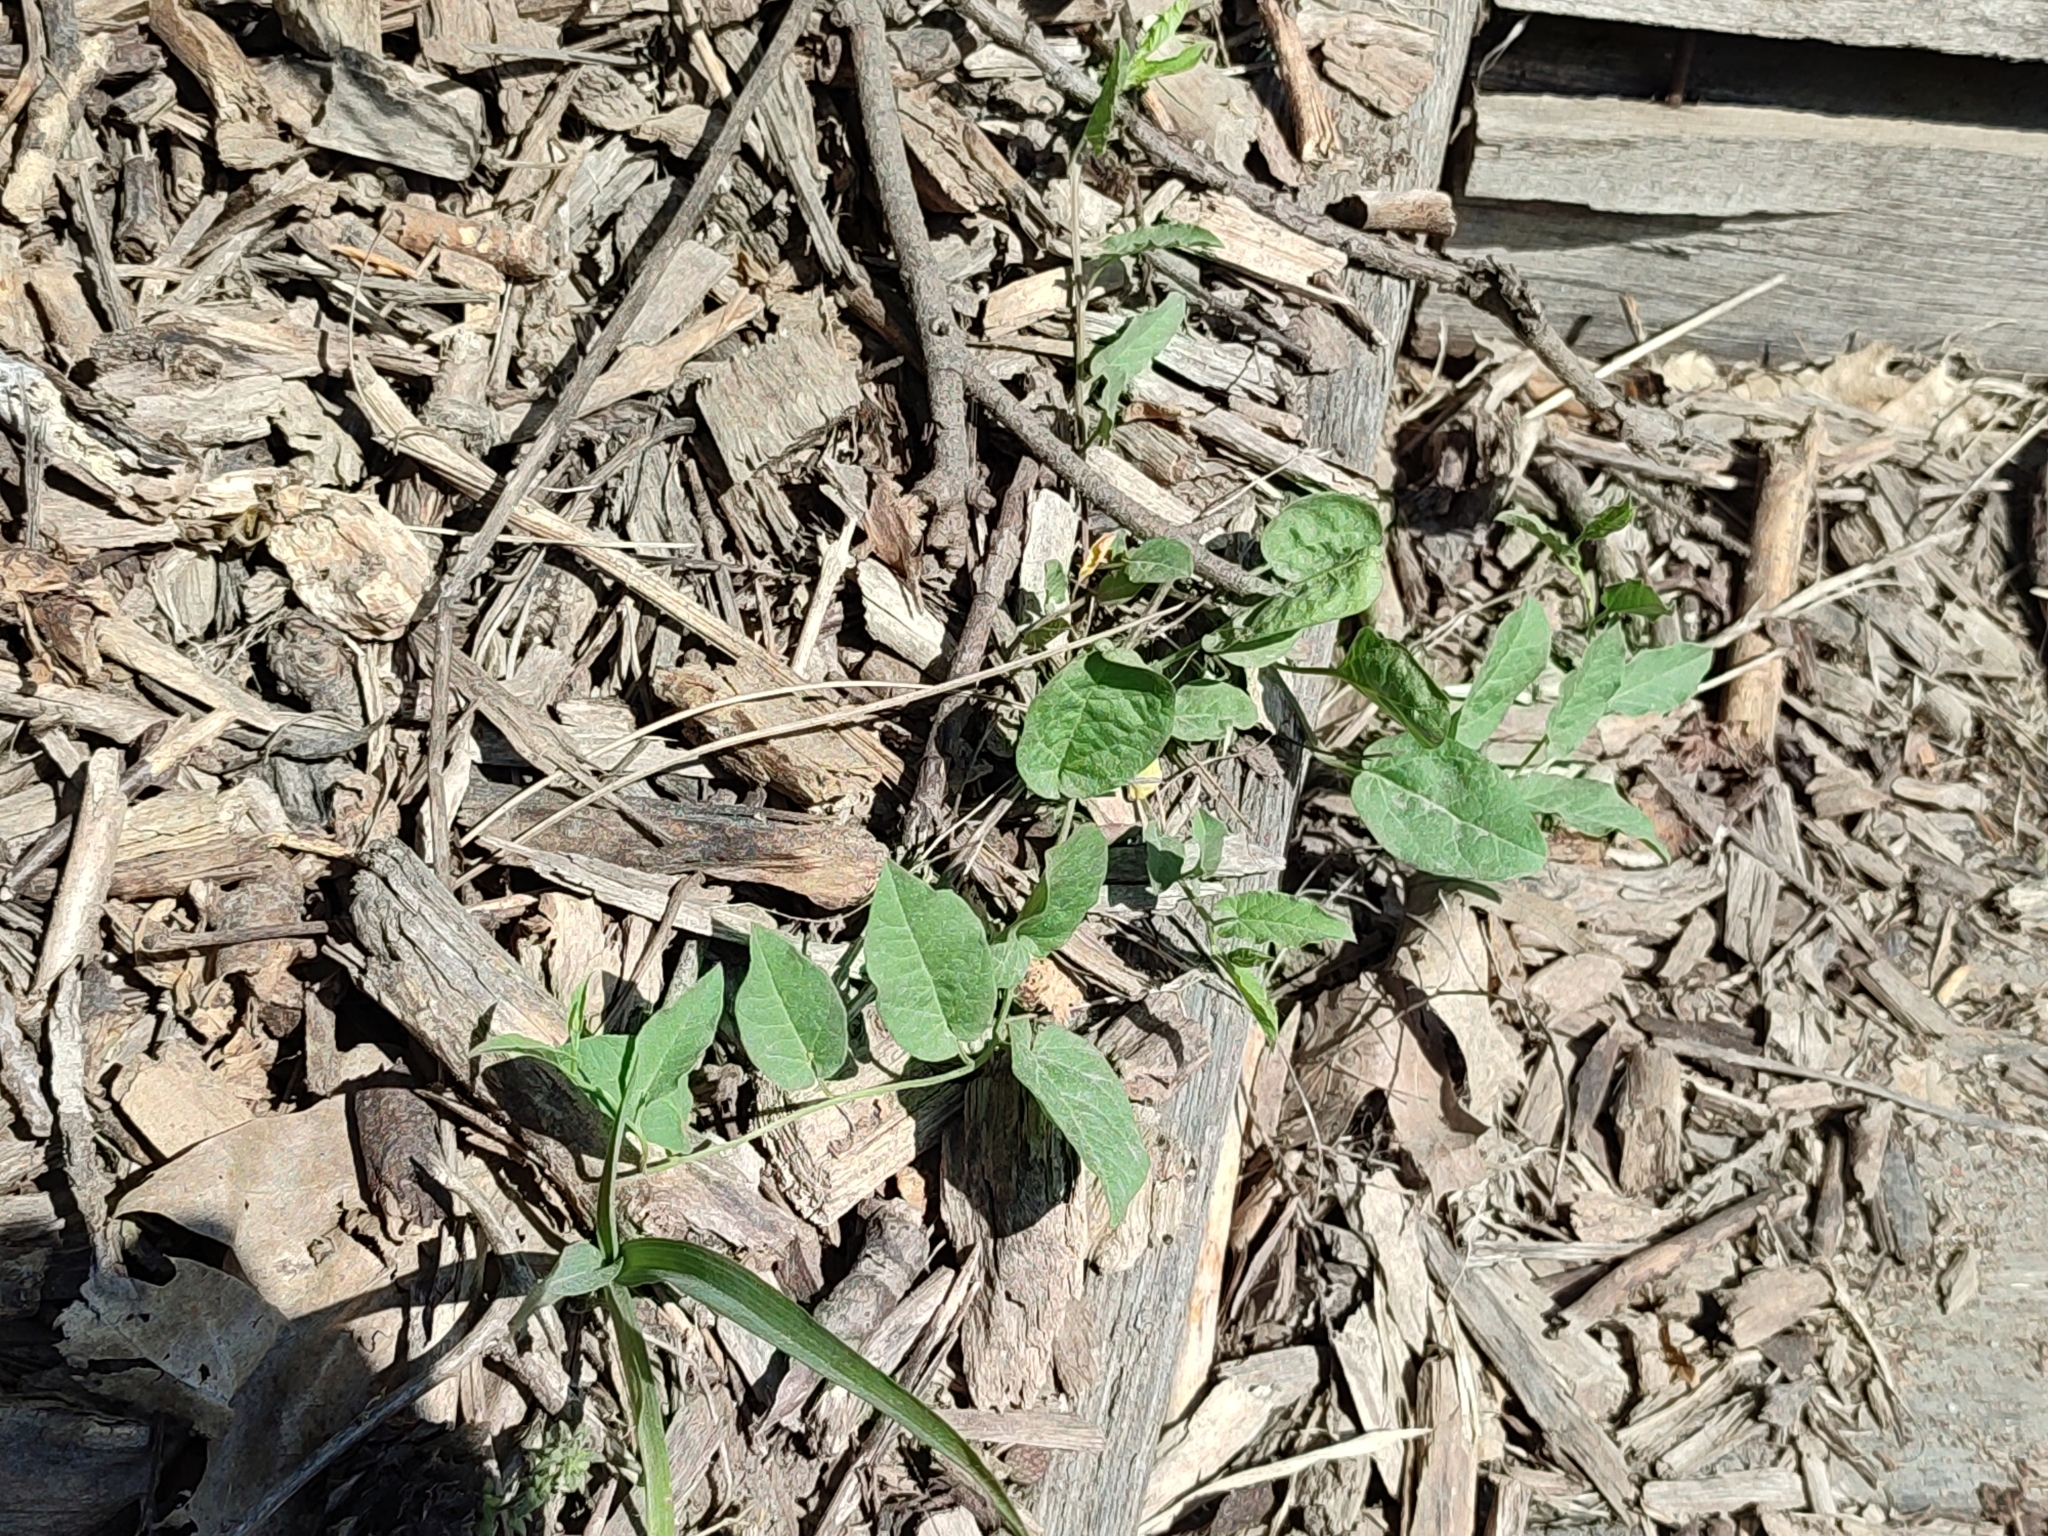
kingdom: Plantae
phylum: Tracheophyta
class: Magnoliopsida
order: Solanales
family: Convolvulaceae
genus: Convolvulus
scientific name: Convolvulus arvensis
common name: Field bindweed
